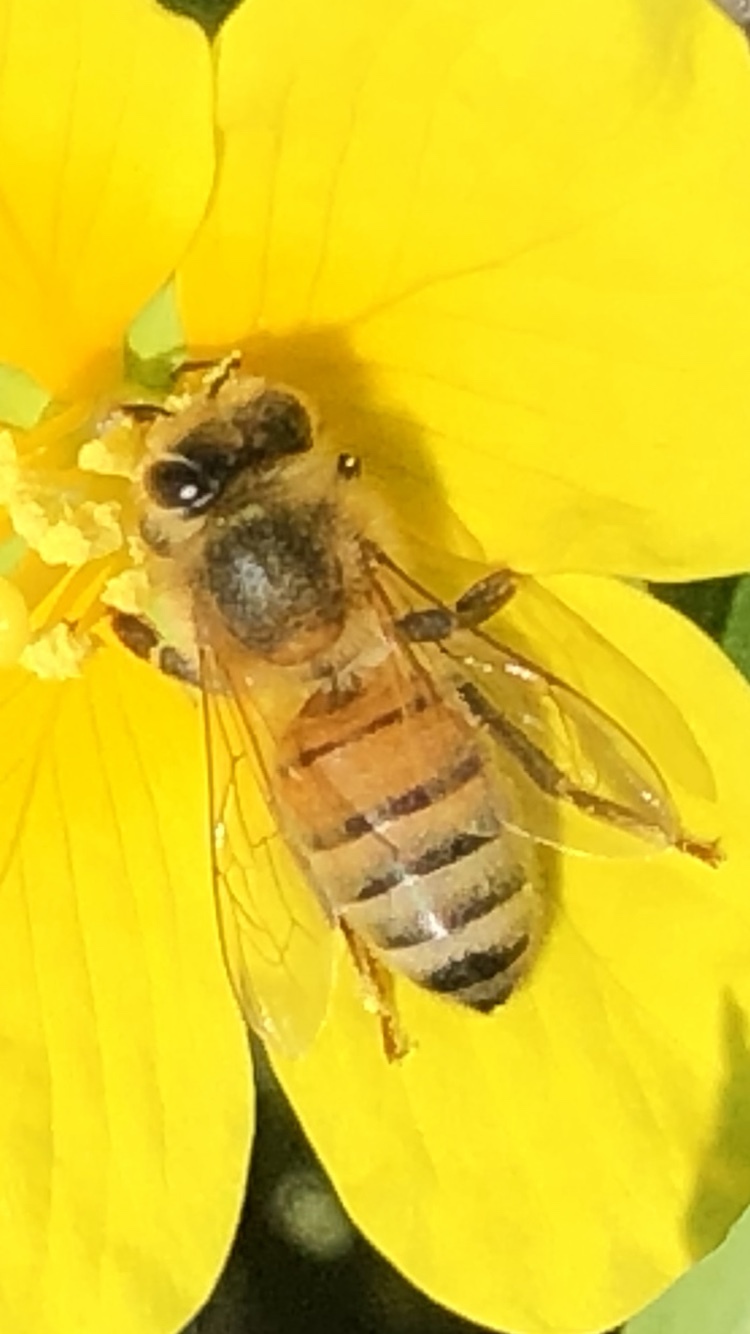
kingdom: Animalia
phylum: Arthropoda
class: Insecta
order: Hymenoptera
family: Apidae
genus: Apis
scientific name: Apis mellifera
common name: Honey bee
